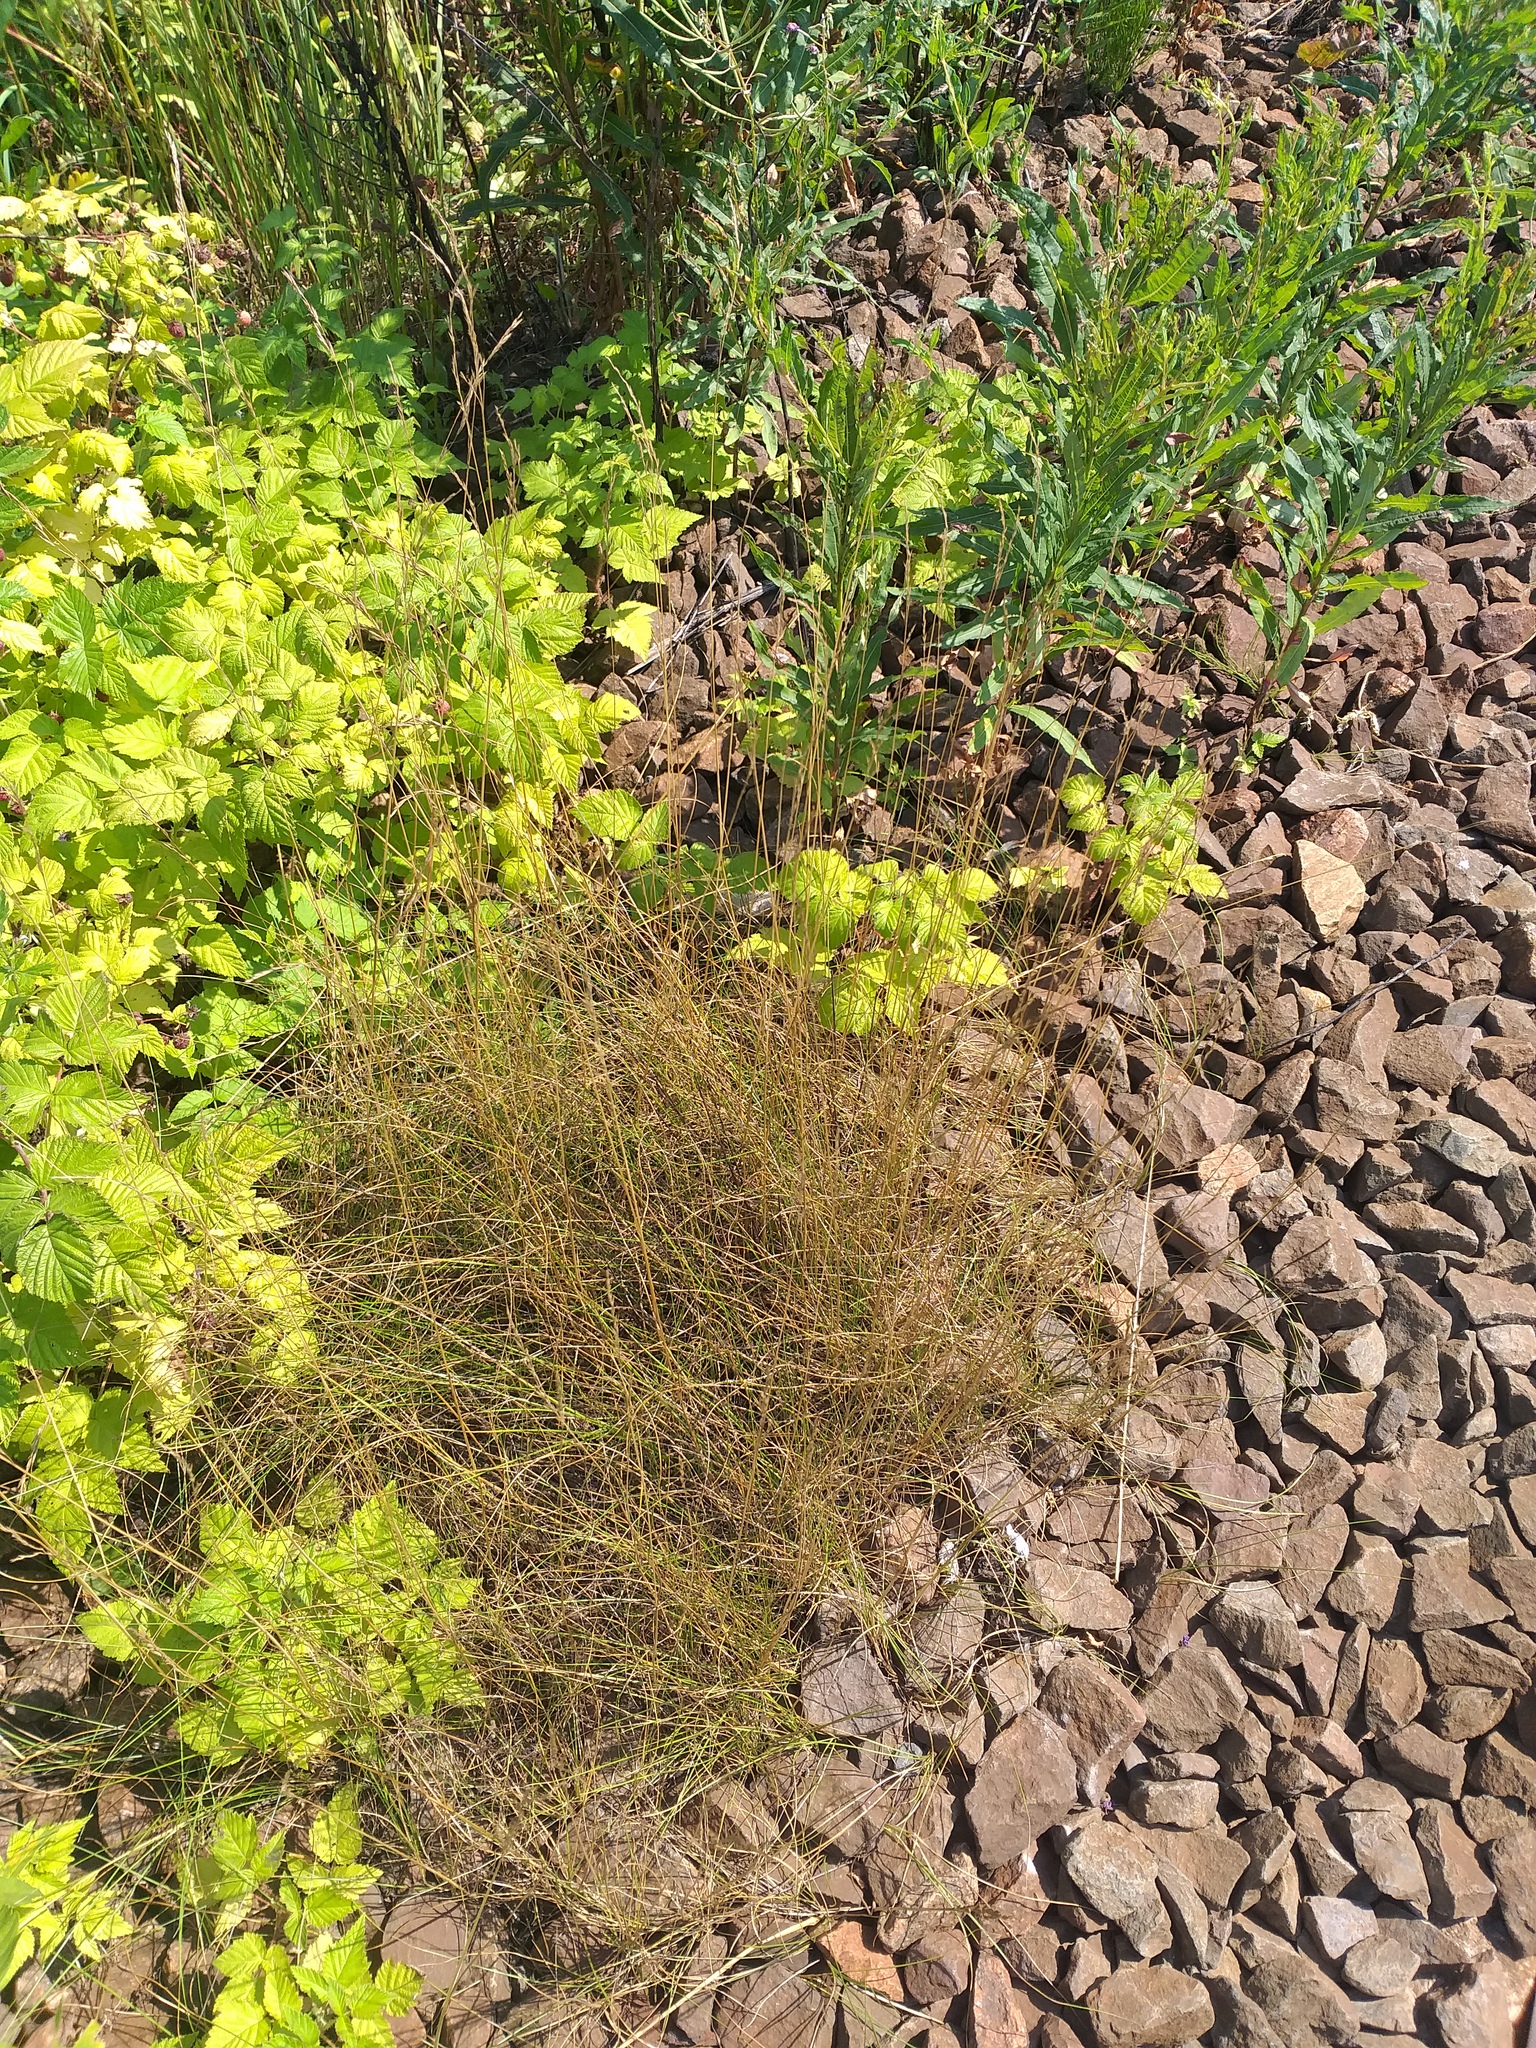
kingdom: Plantae
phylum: Tracheophyta
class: Liliopsida
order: Poales
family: Poaceae
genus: Festuca
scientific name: Festuca rubra
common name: Red fescue
